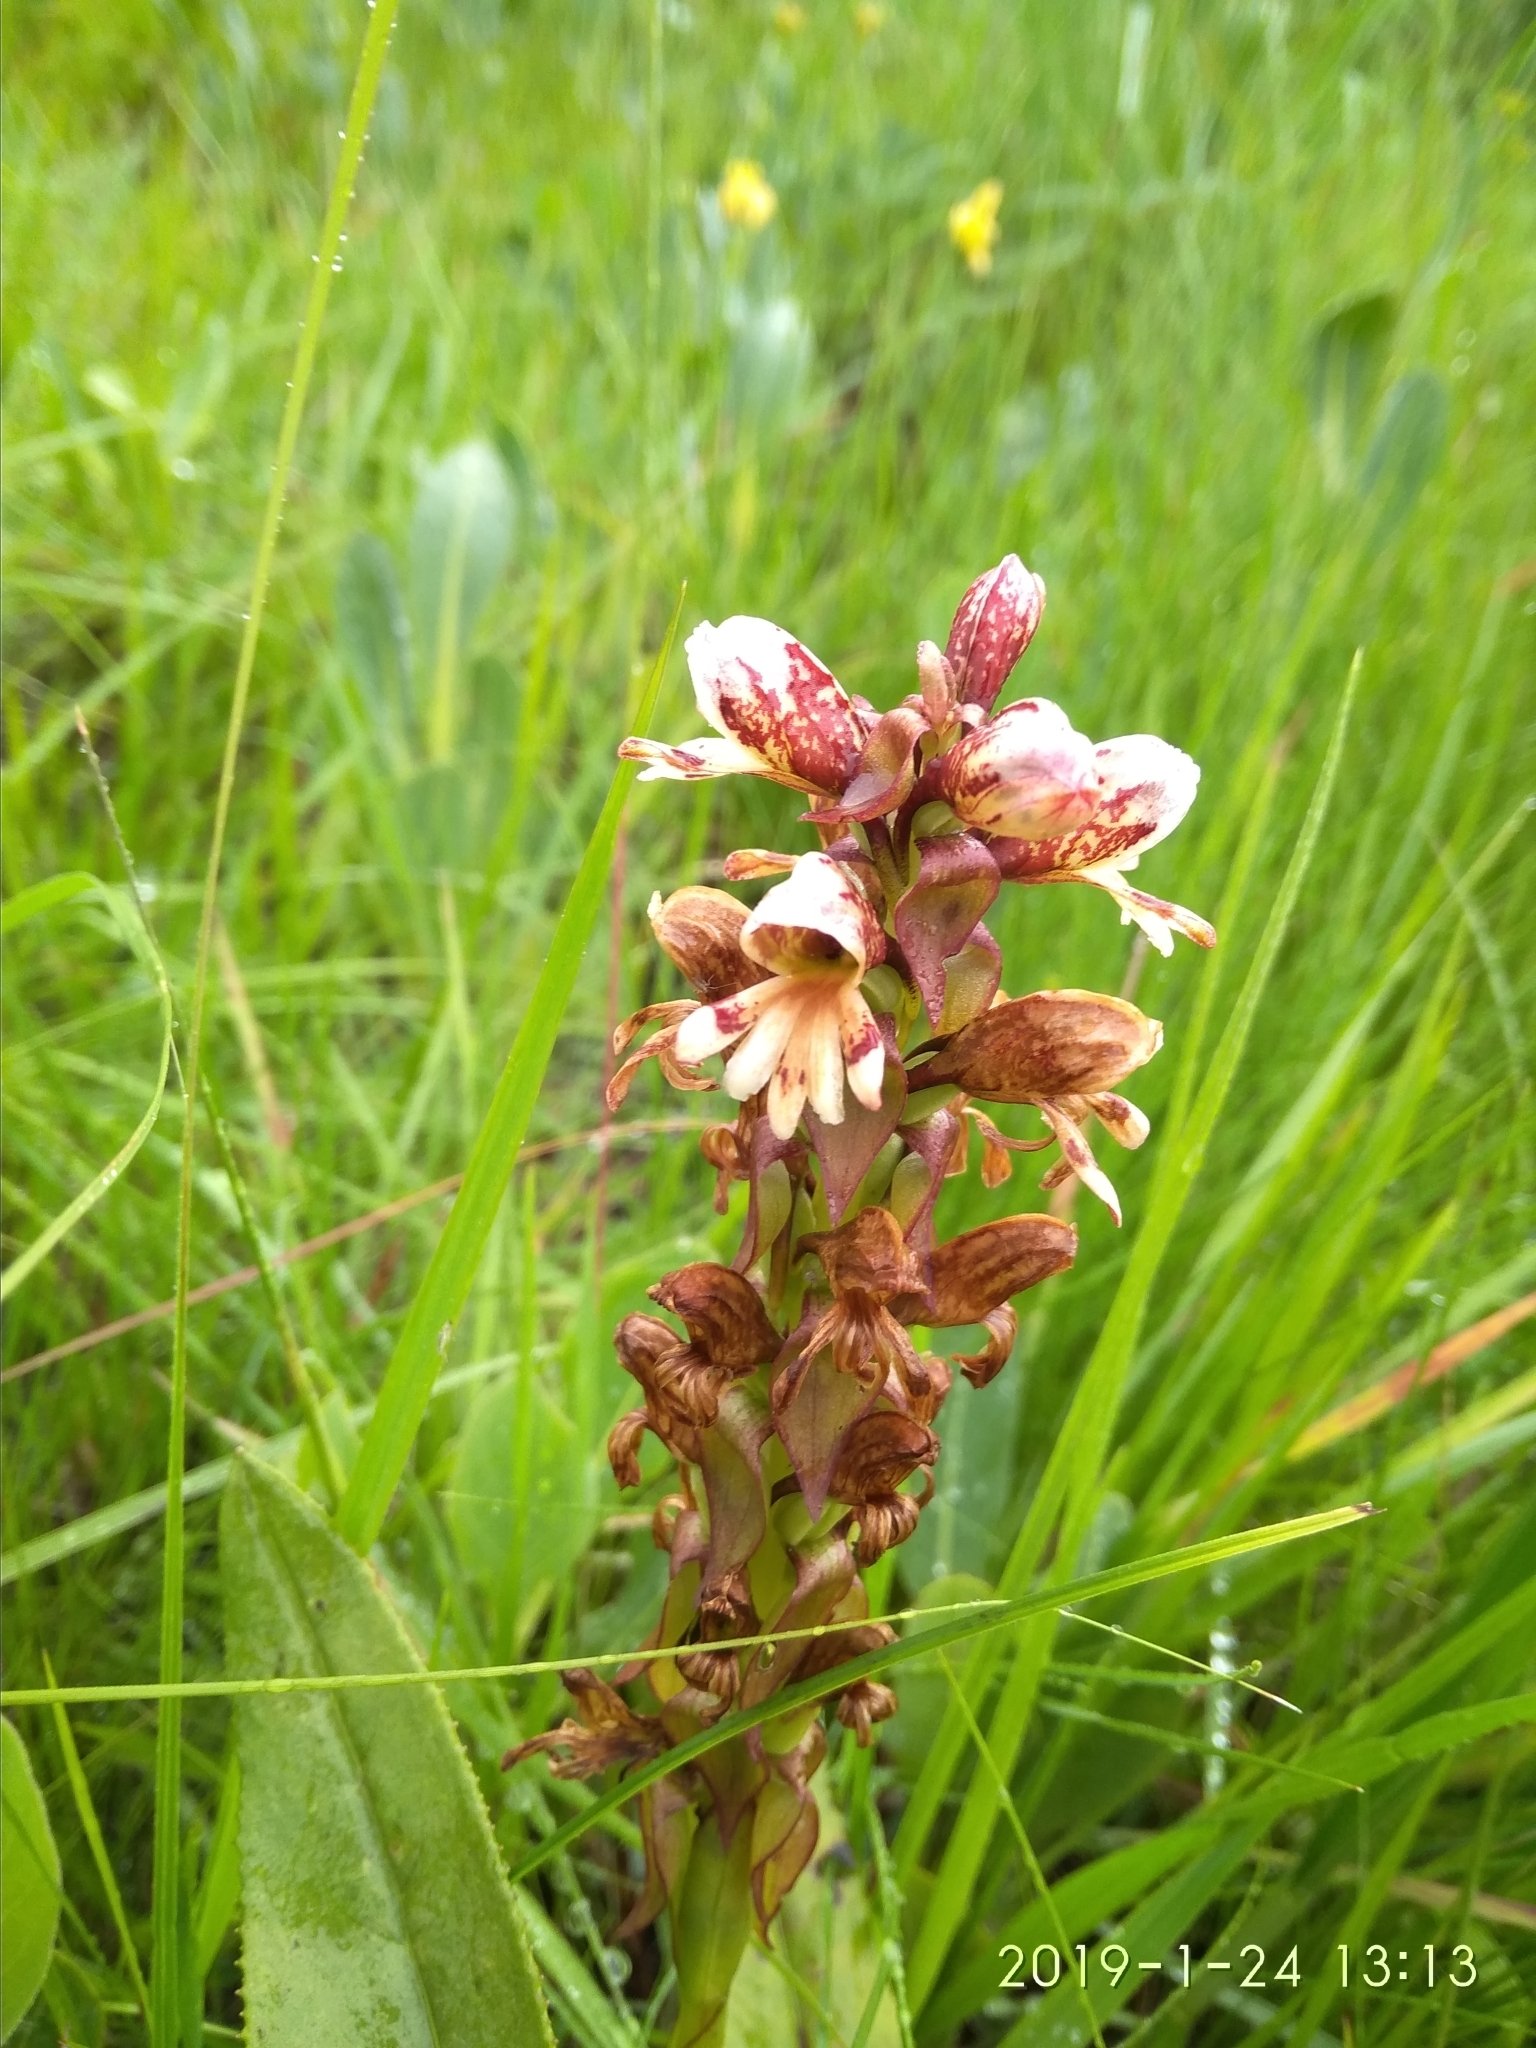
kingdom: Plantae
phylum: Tracheophyta
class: Liliopsida
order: Asparagales
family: Orchidaceae
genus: Satyrium
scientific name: Satyrium sphaerocarpum
